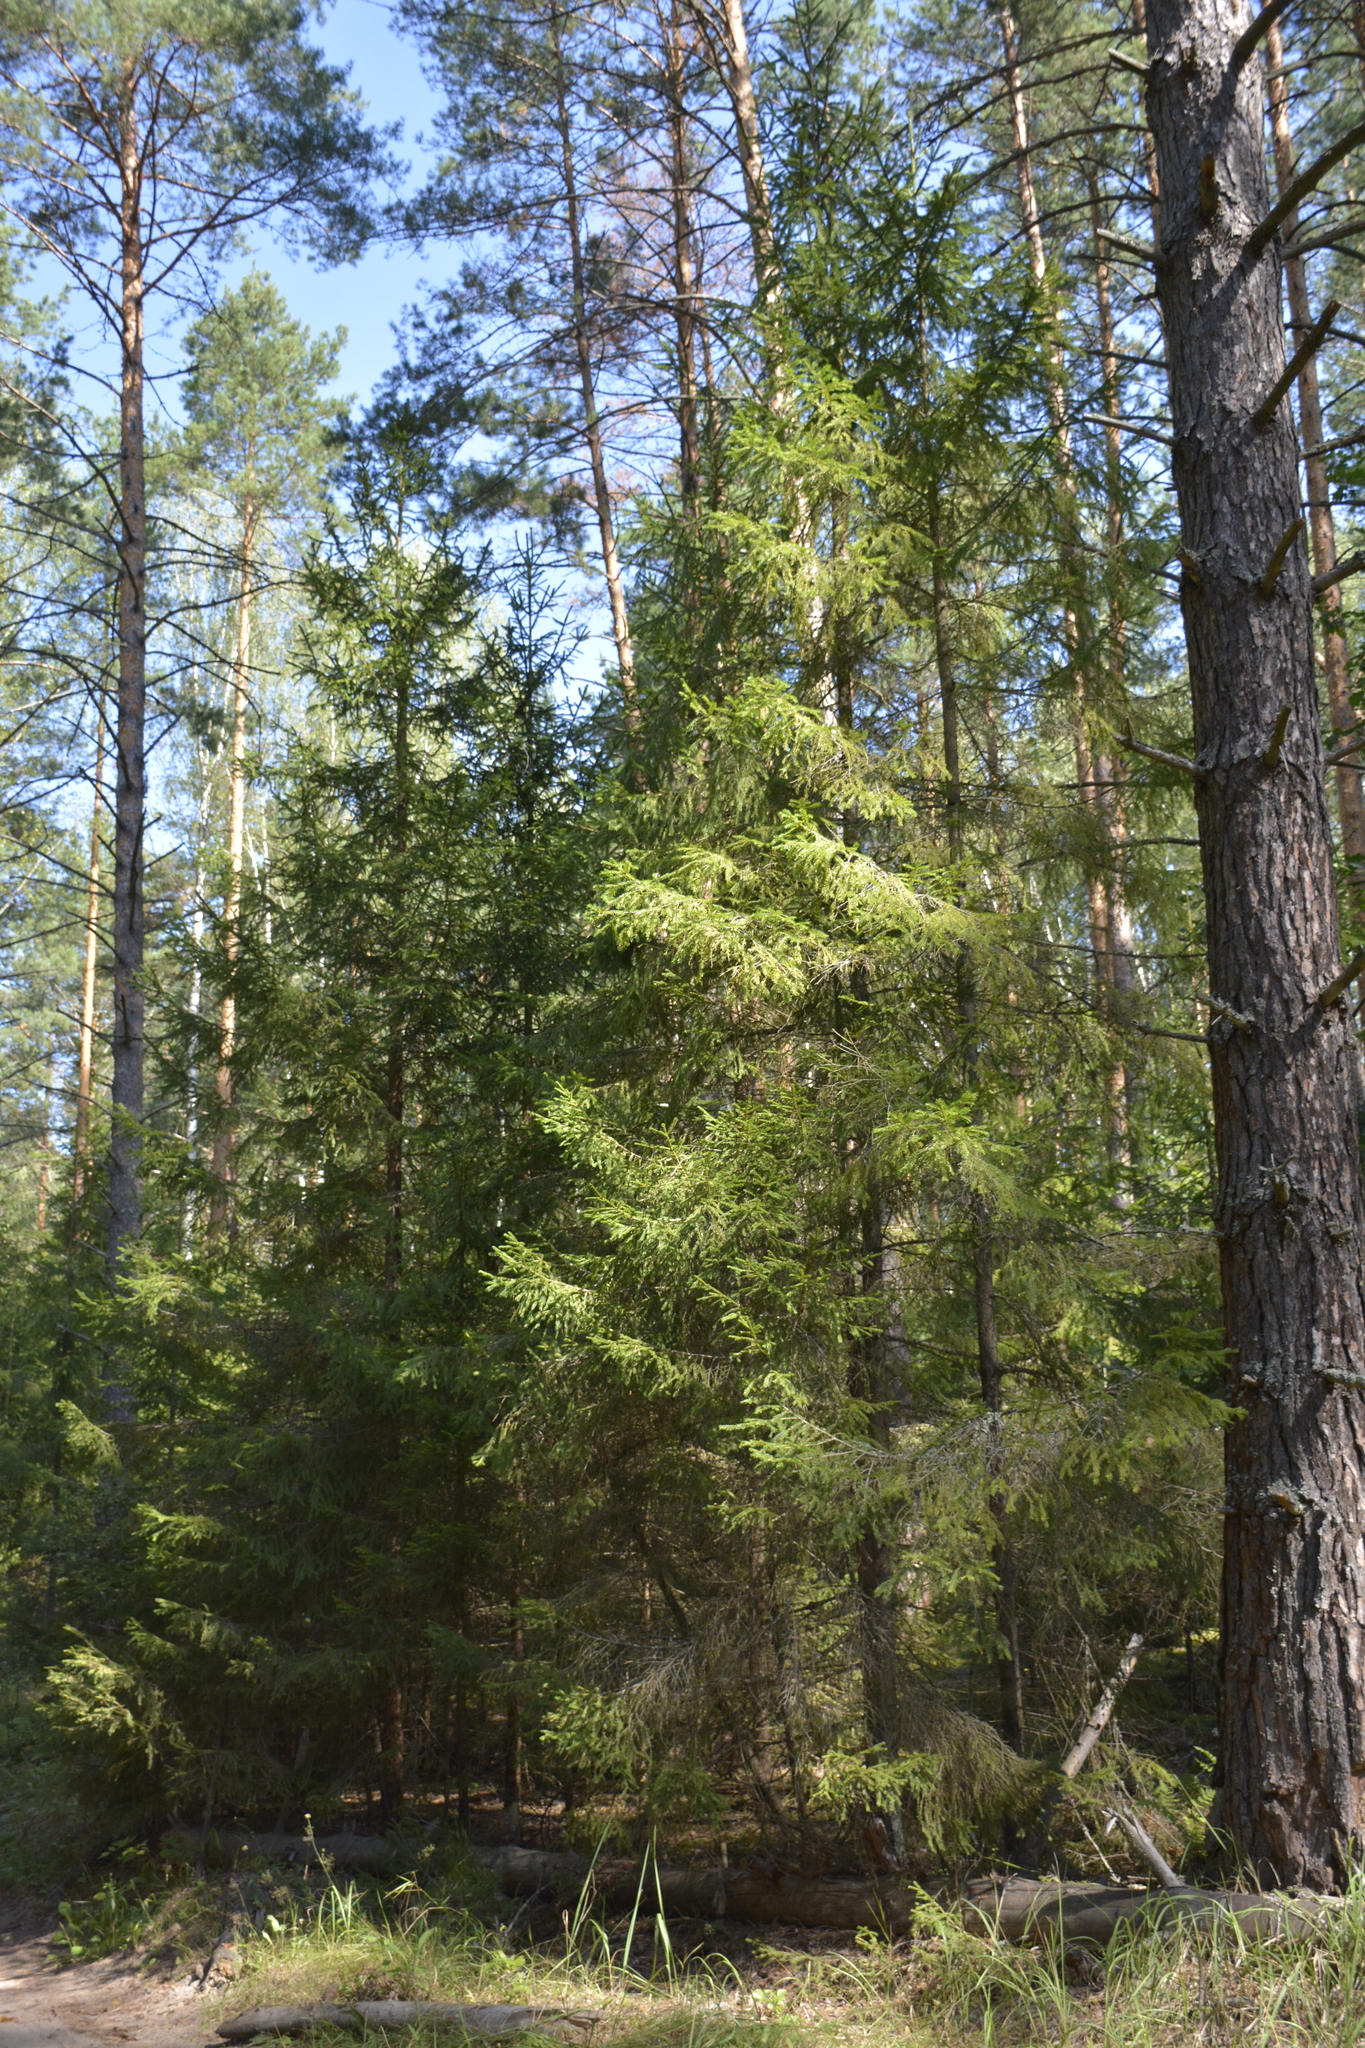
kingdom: Plantae
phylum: Tracheophyta
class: Pinopsida
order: Pinales
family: Pinaceae
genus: Picea
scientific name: Picea abies
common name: Norway spruce
